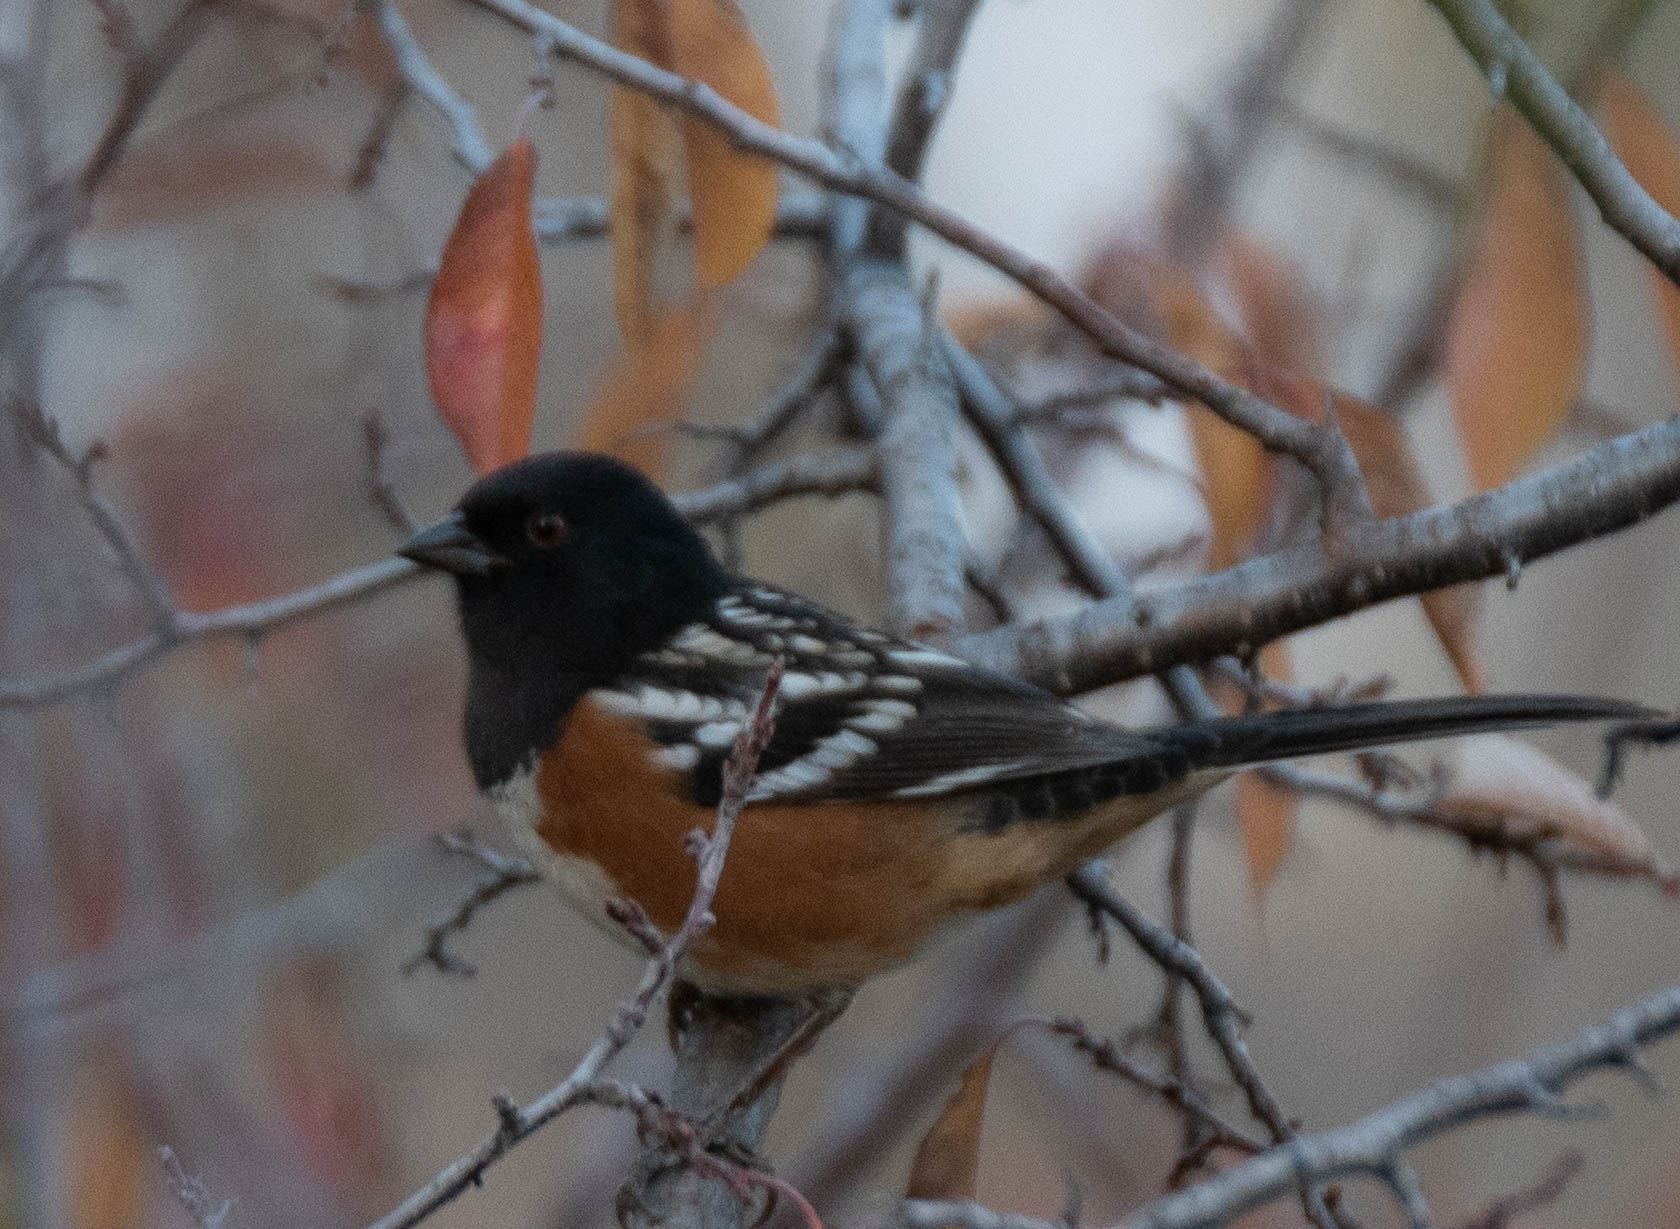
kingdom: Animalia
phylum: Chordata
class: Aves
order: Passeriformes
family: Passerellidae
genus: Pipilo
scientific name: Pipilo maculatus
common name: Spotted towhee
